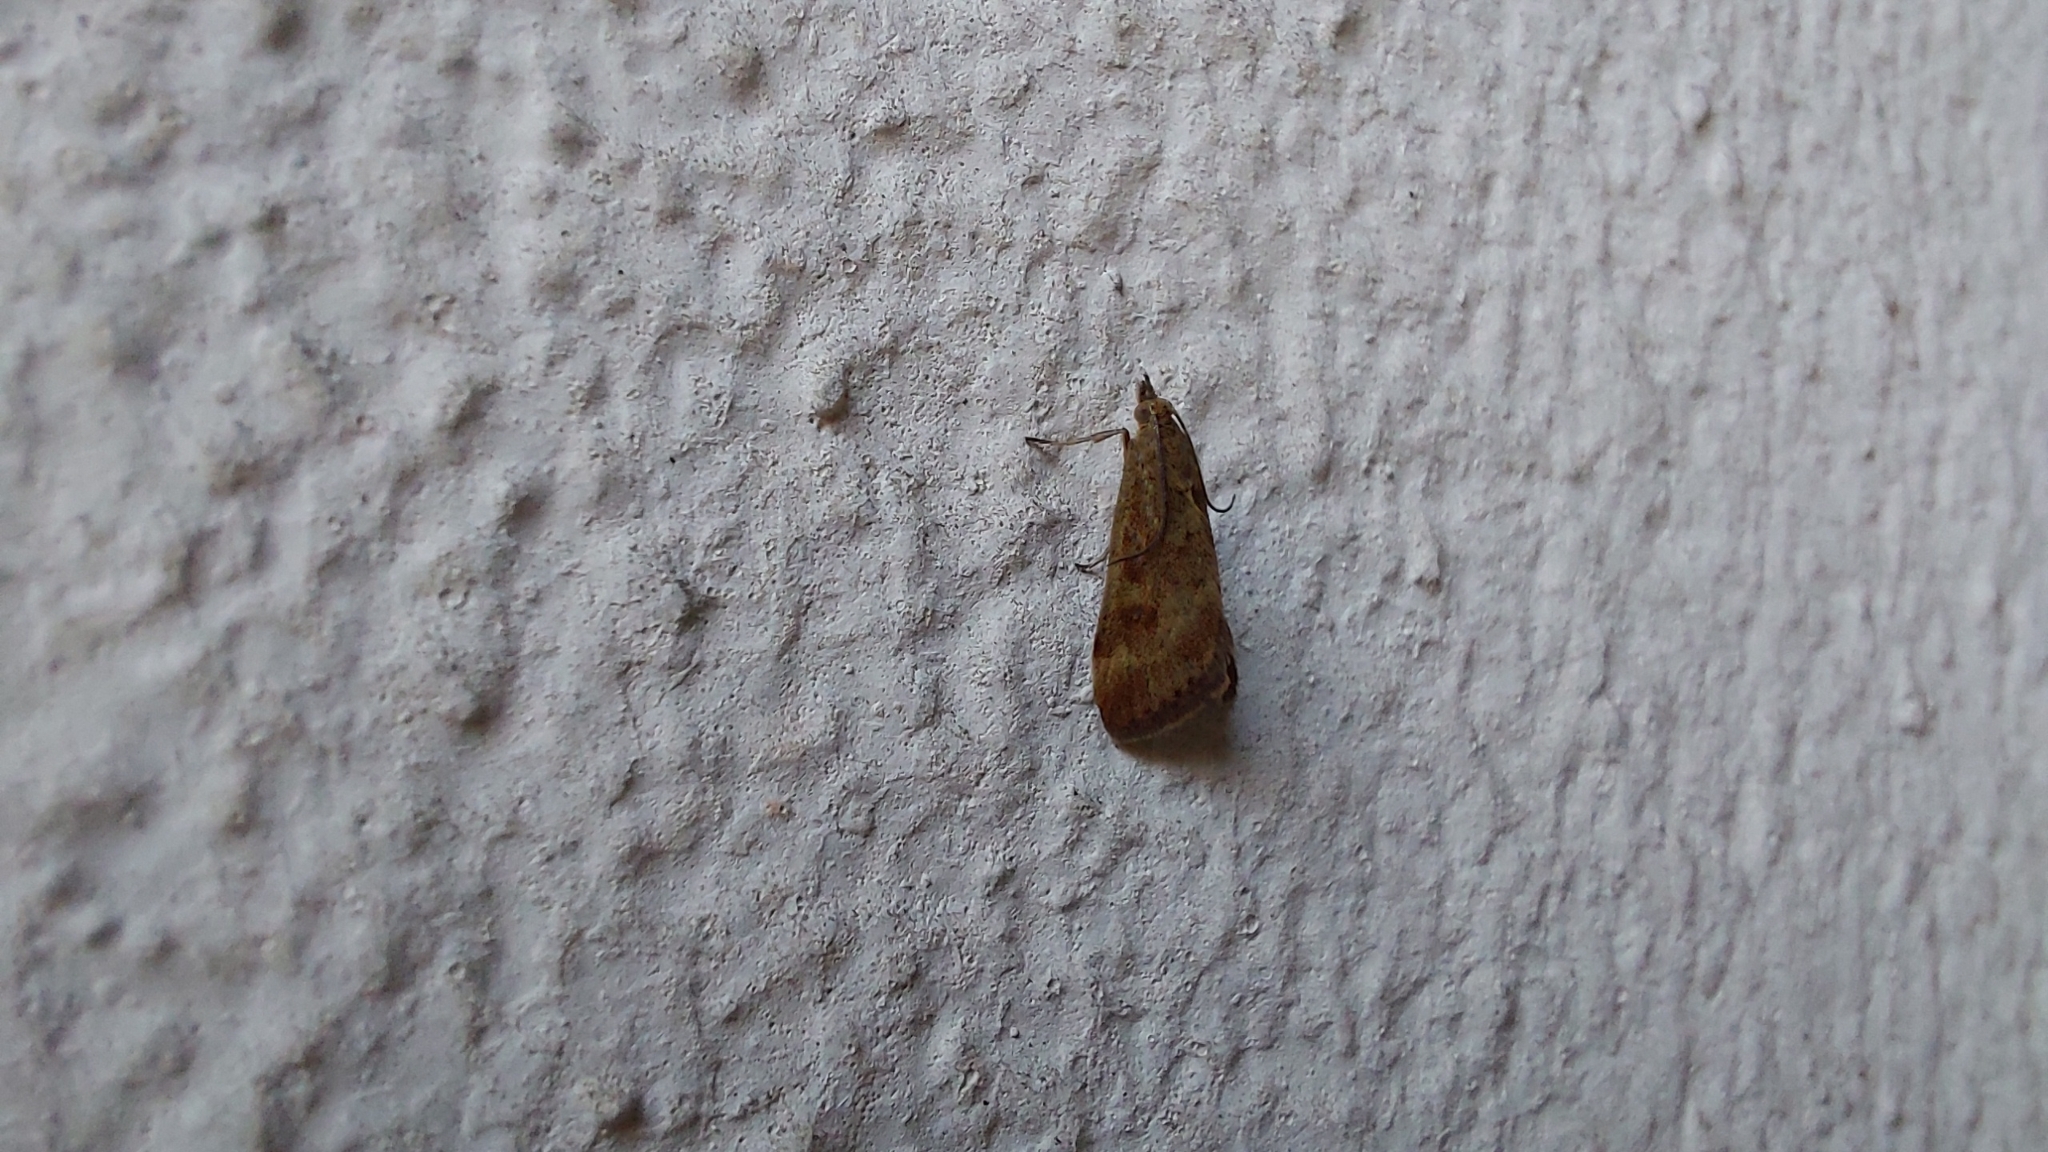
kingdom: Animalia
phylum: Arthropoda
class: Insecta
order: Lepidoptera
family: Crambidae
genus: Pyrausta
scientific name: Pyrausta despicata
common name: Straw-barred pearl
